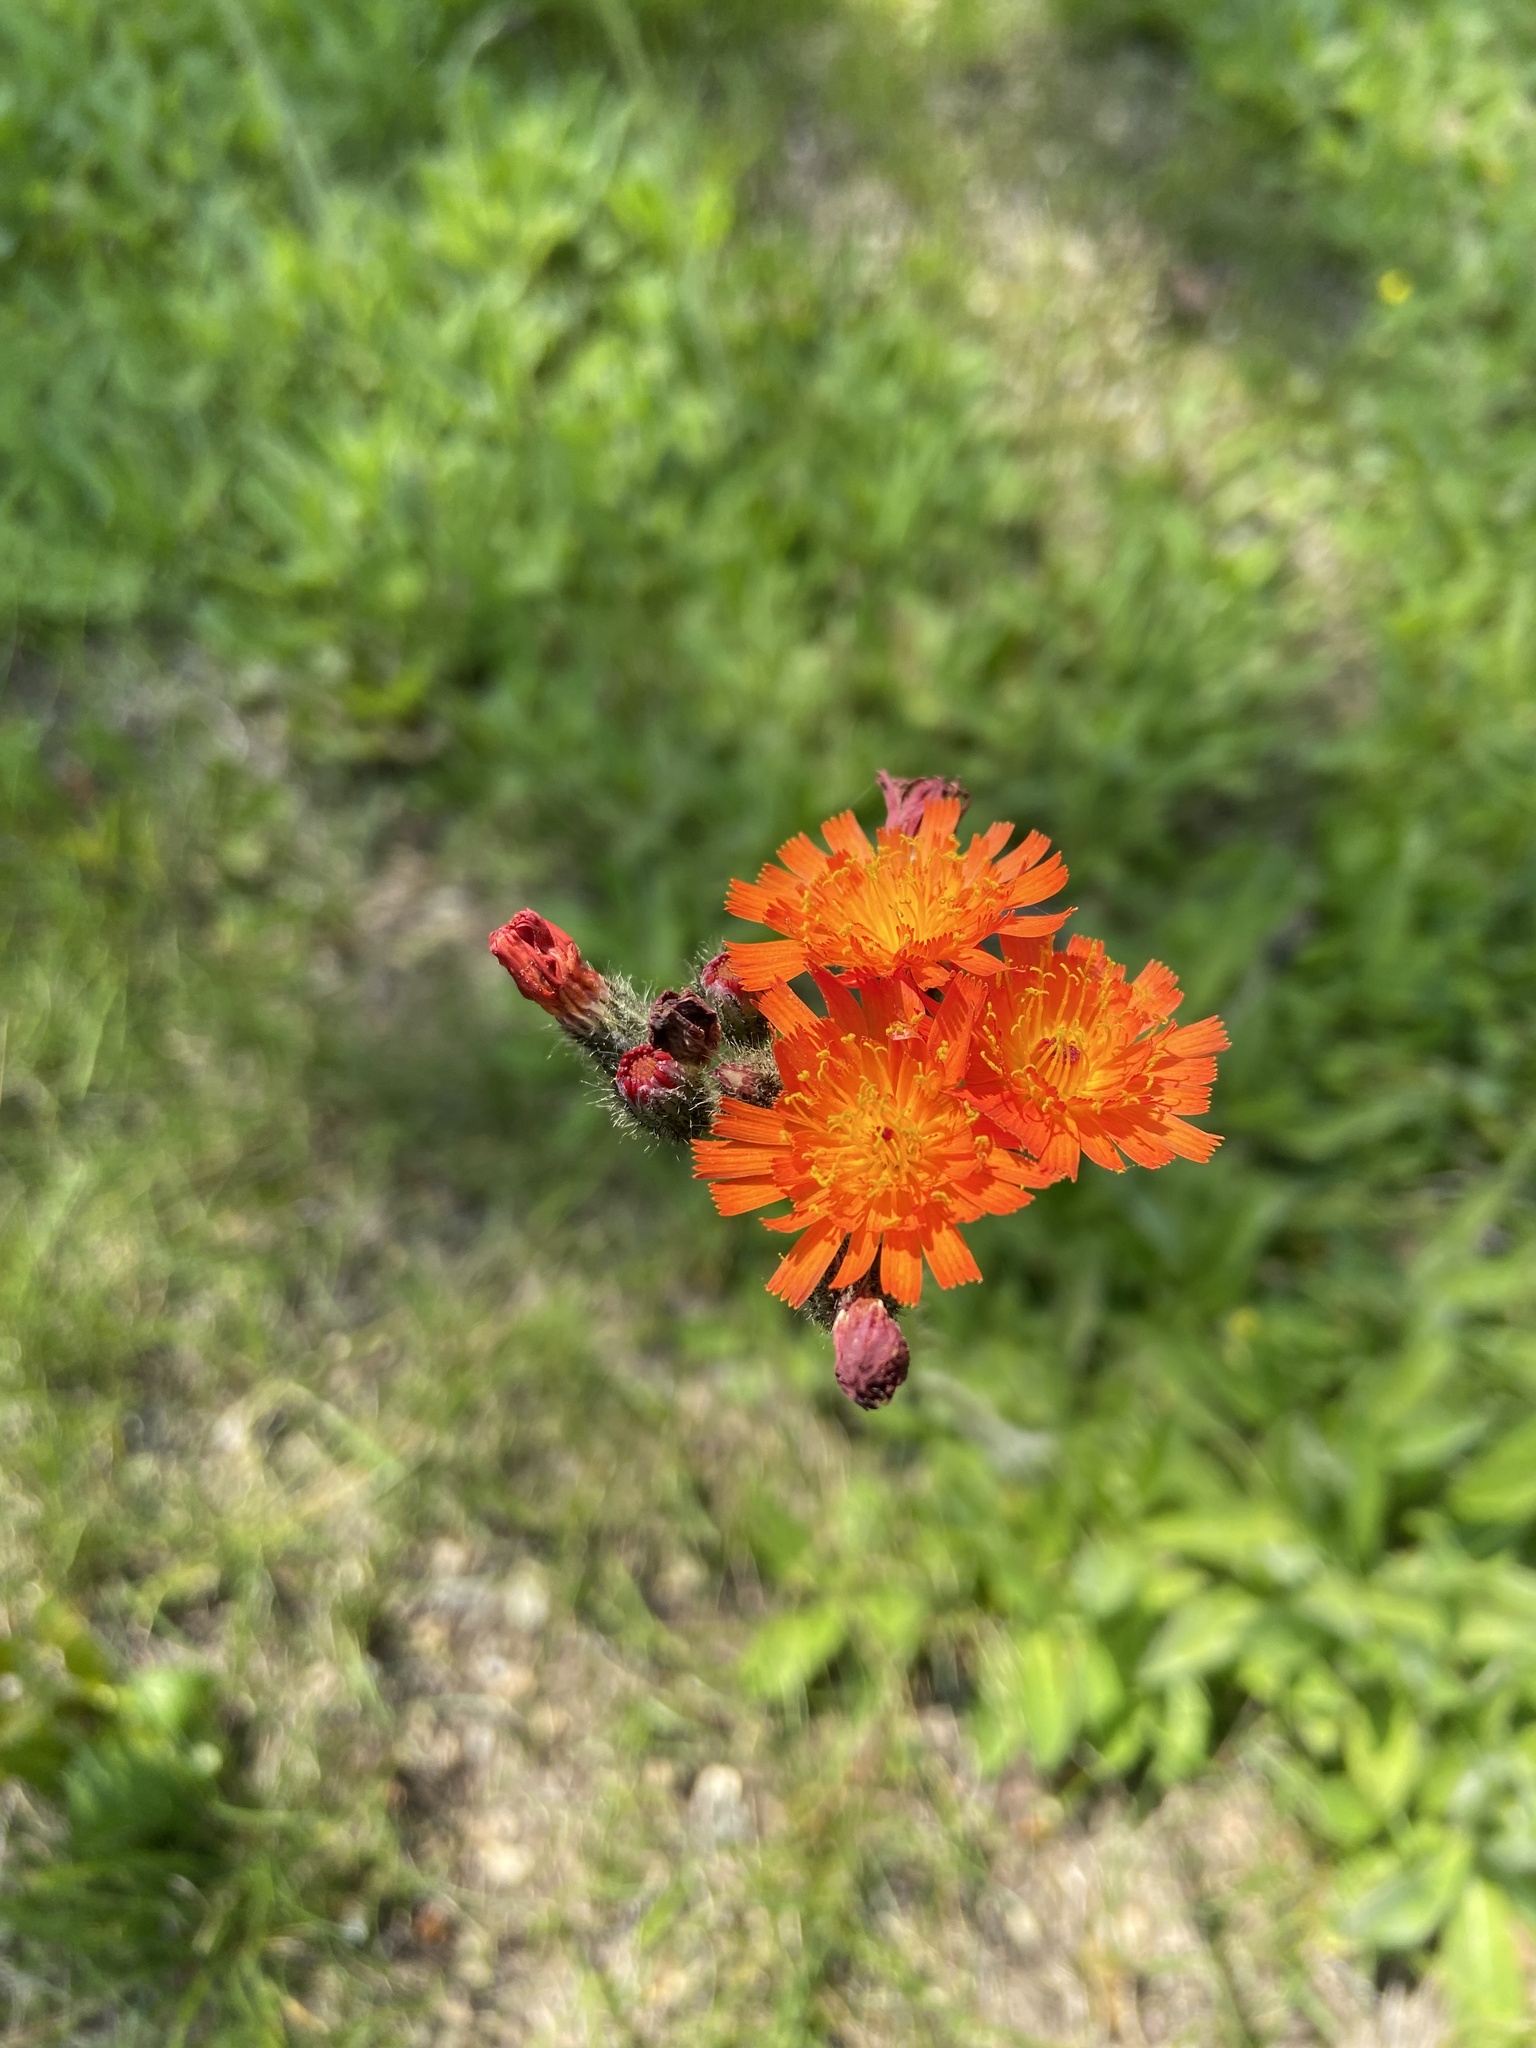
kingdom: Plantae
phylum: Tracheophyta
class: Magnoliopsida
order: Asterales
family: Asteraceae
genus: Pilosella
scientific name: Pilosella aurantiaca
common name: Fox-and-cubs
